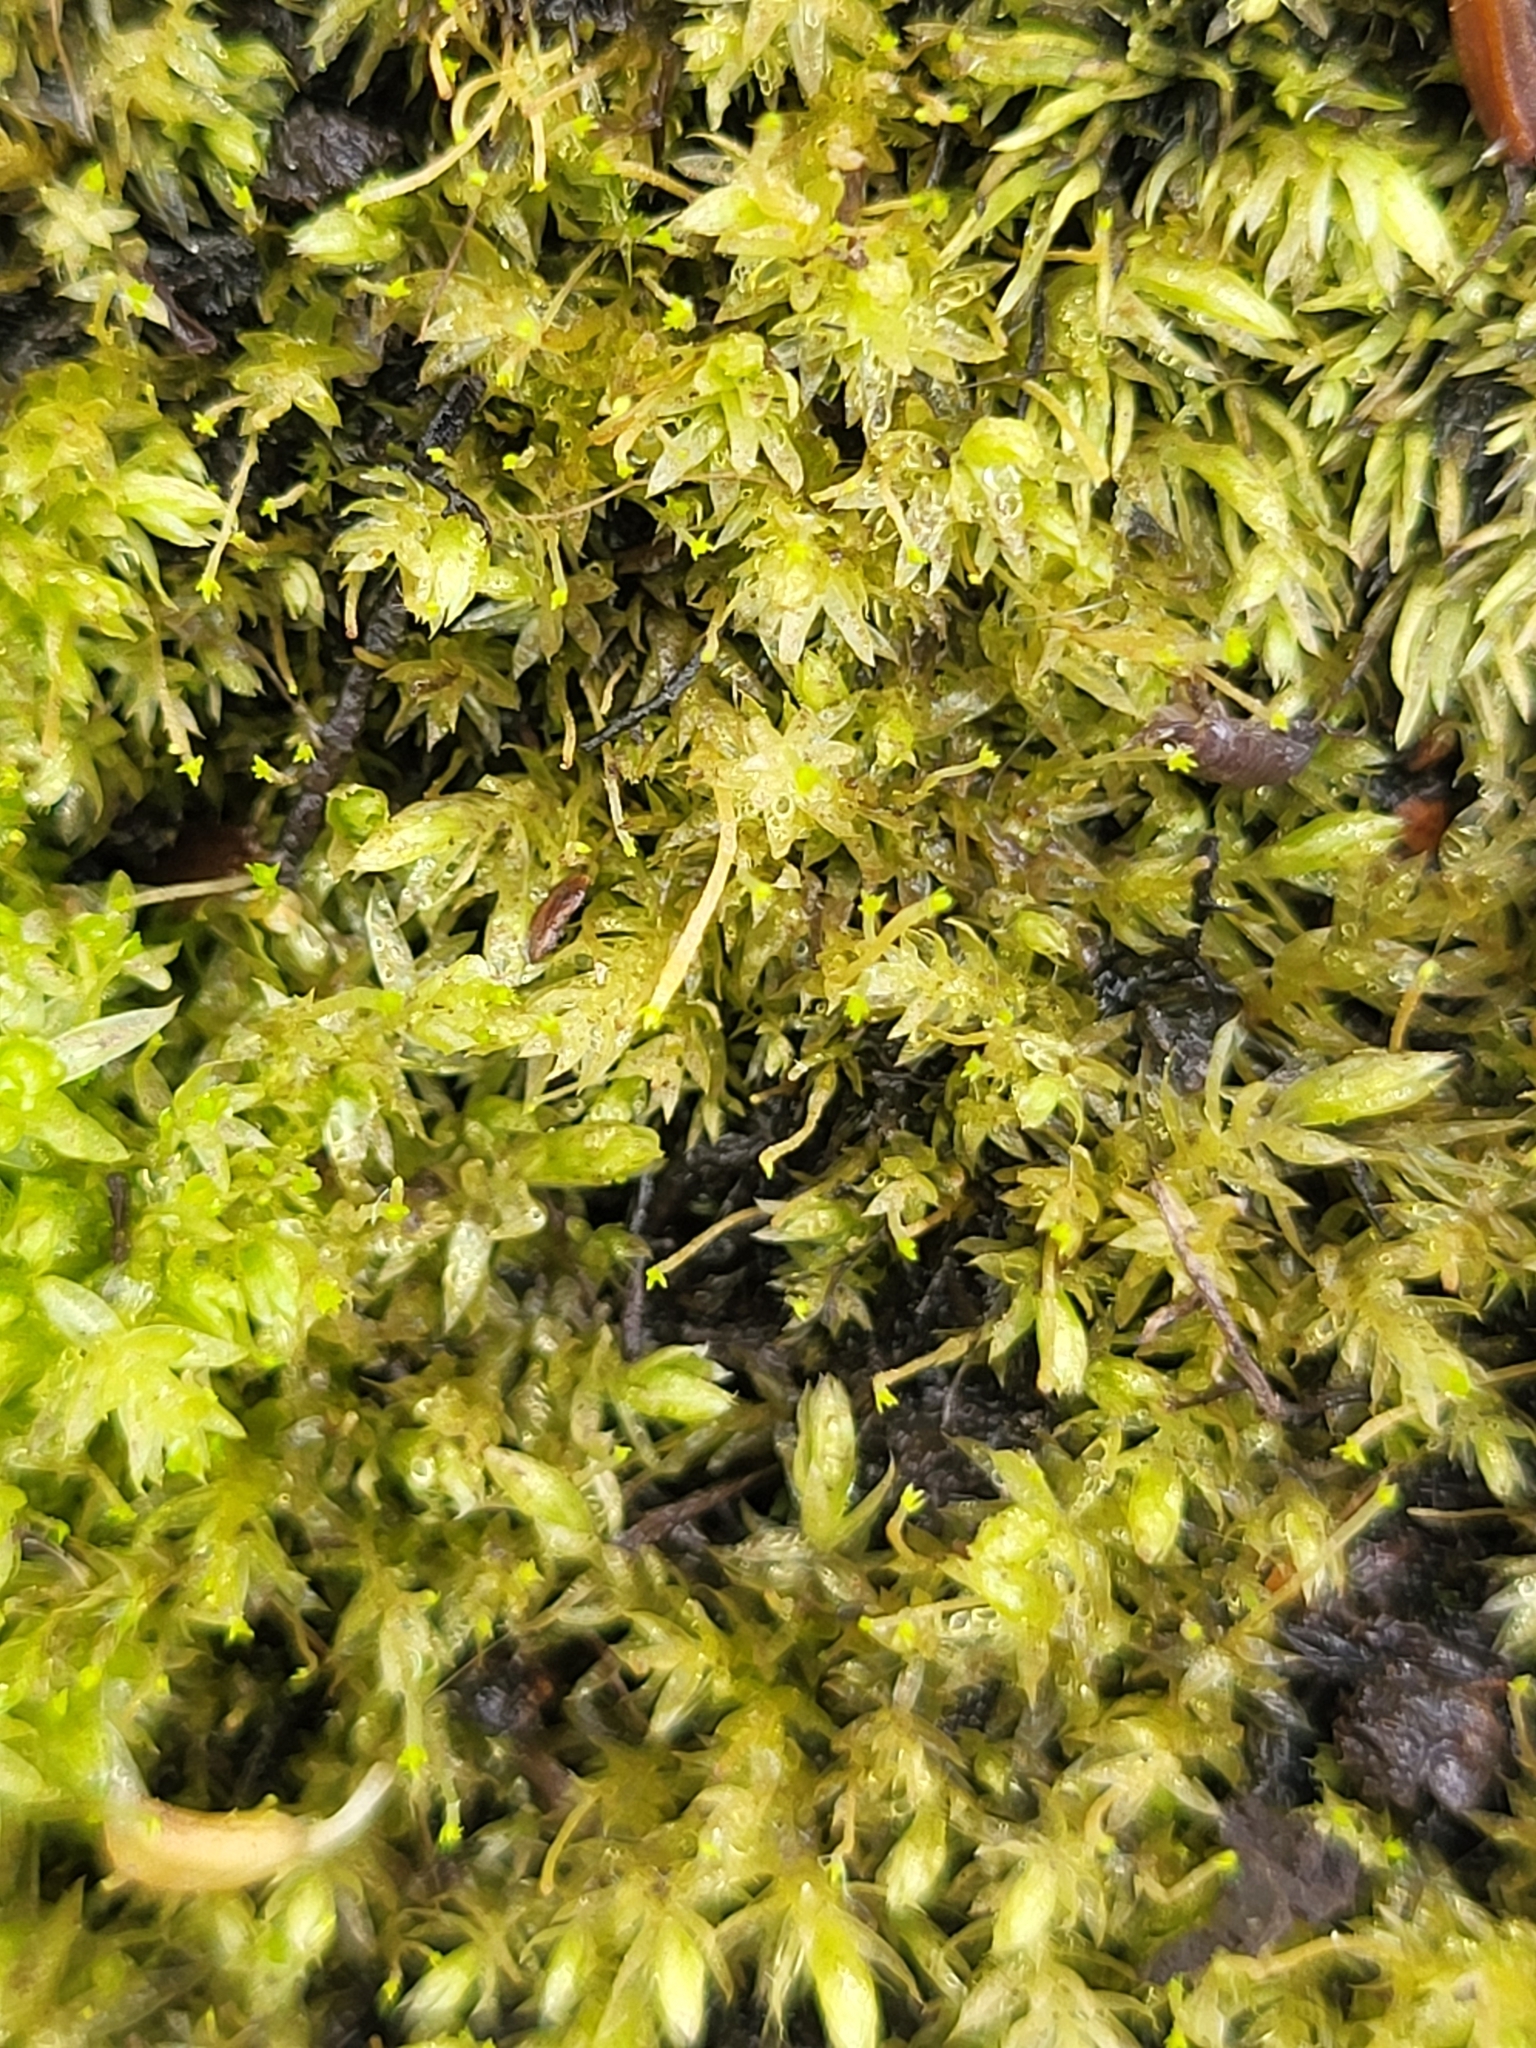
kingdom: Plantae
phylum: Bryophyta
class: Bryopsida
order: Aulacomniales
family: Aulacomniaceae
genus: Aulacomnium
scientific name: Aulacomnium palustre
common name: Bog groove-moss
